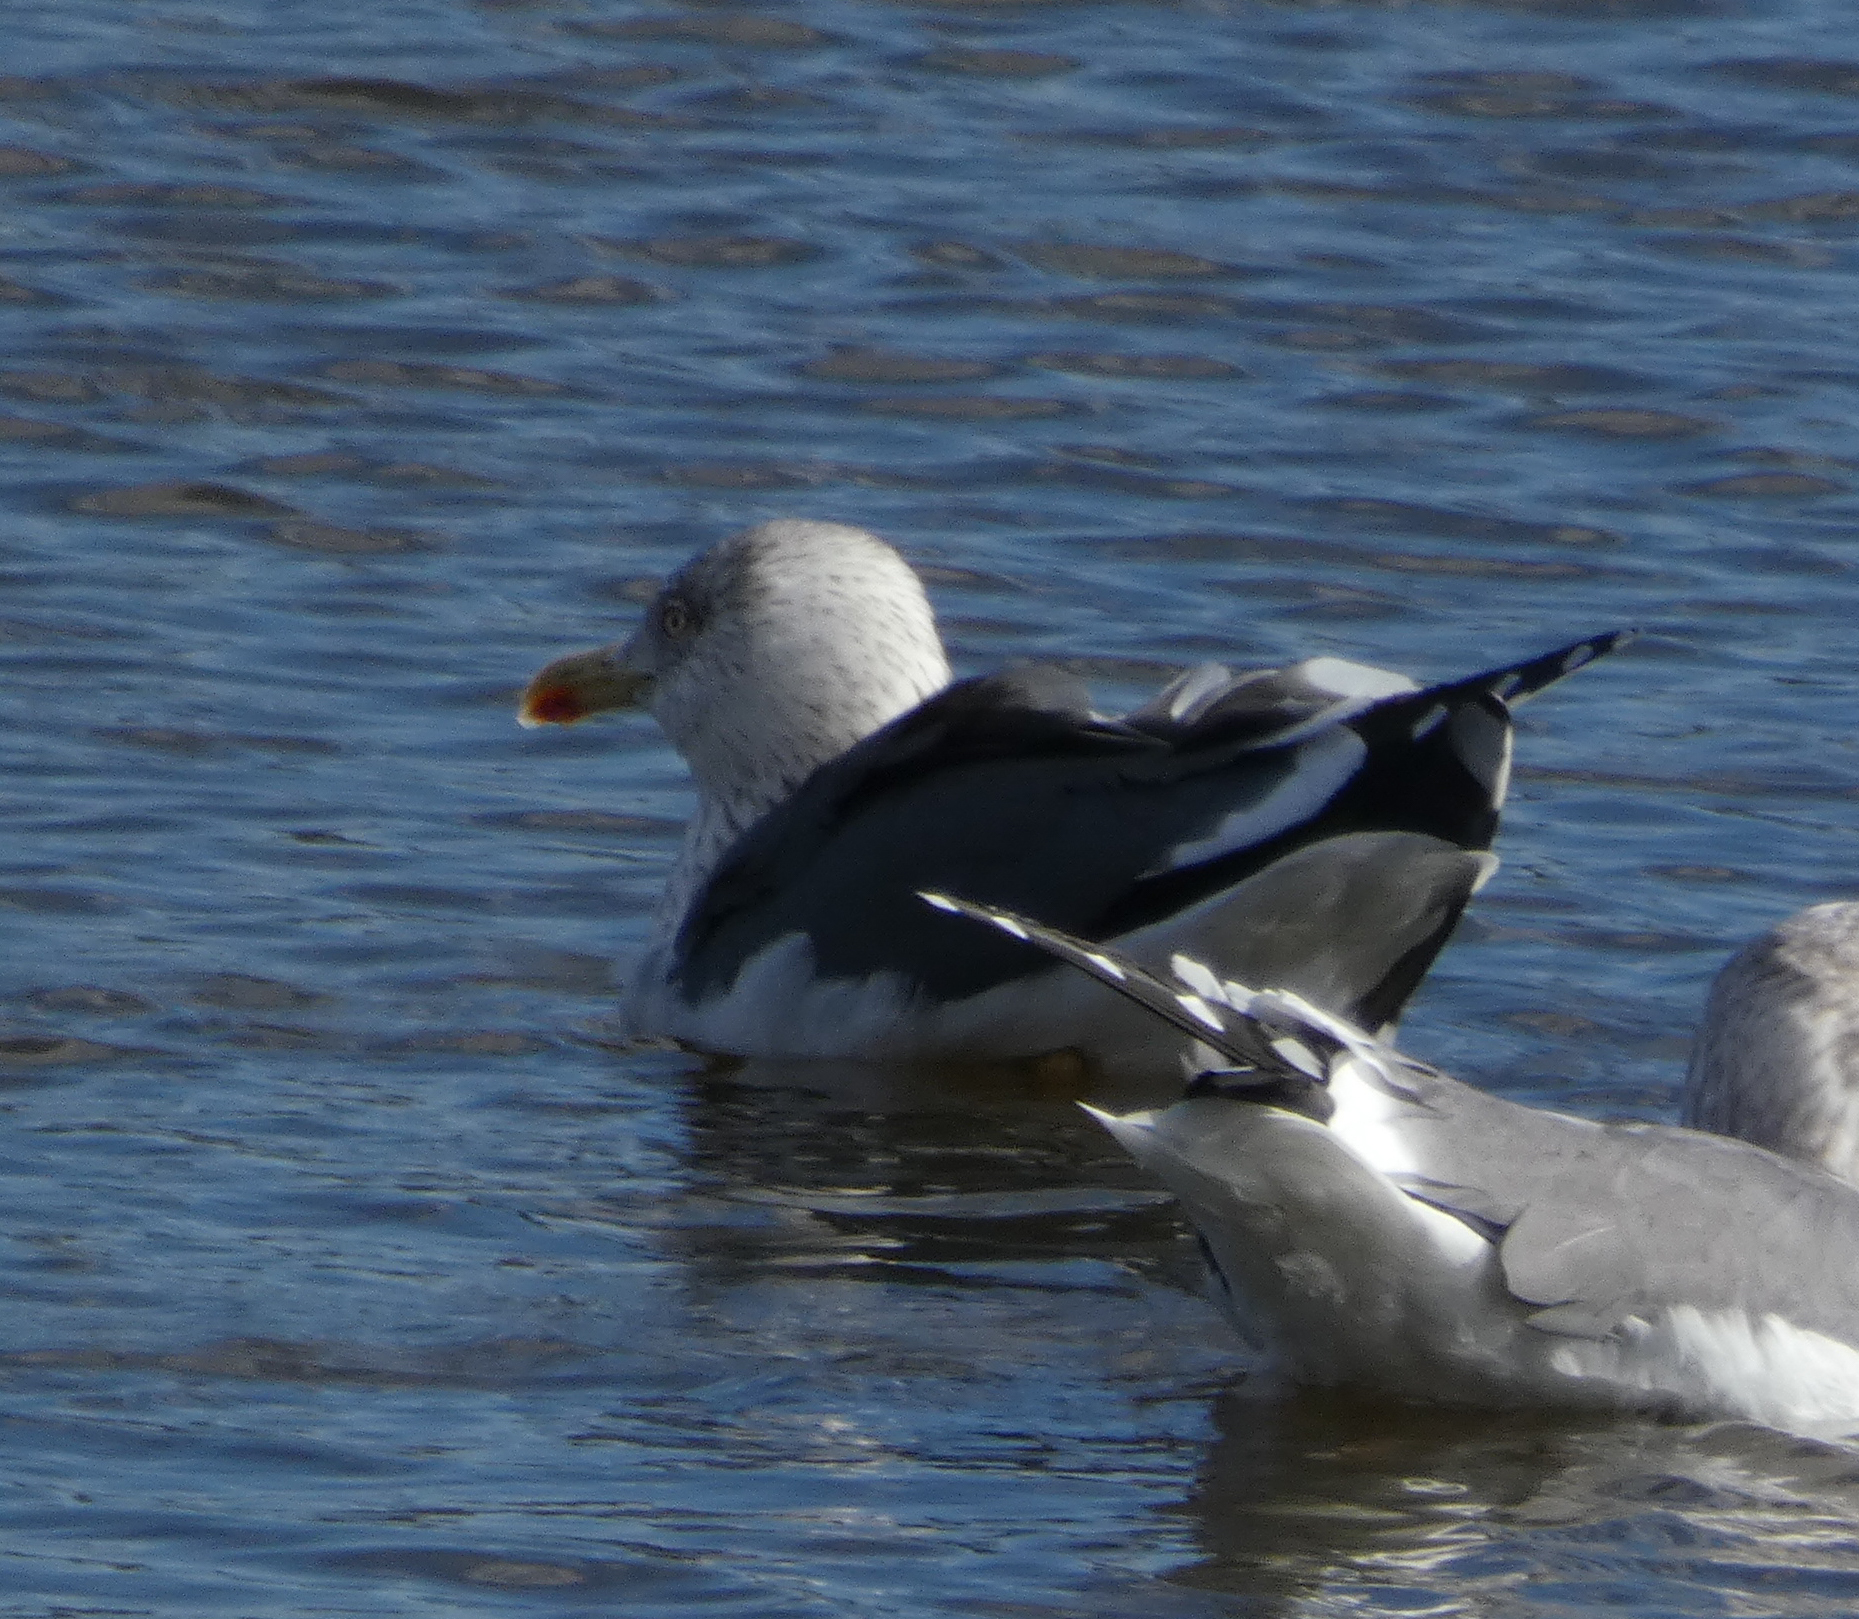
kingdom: Animalia
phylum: Chordata
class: Aves
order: Charadriiformes
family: Laridae
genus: Larus
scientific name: Larus fuscus
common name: Lesser black-backed gull
